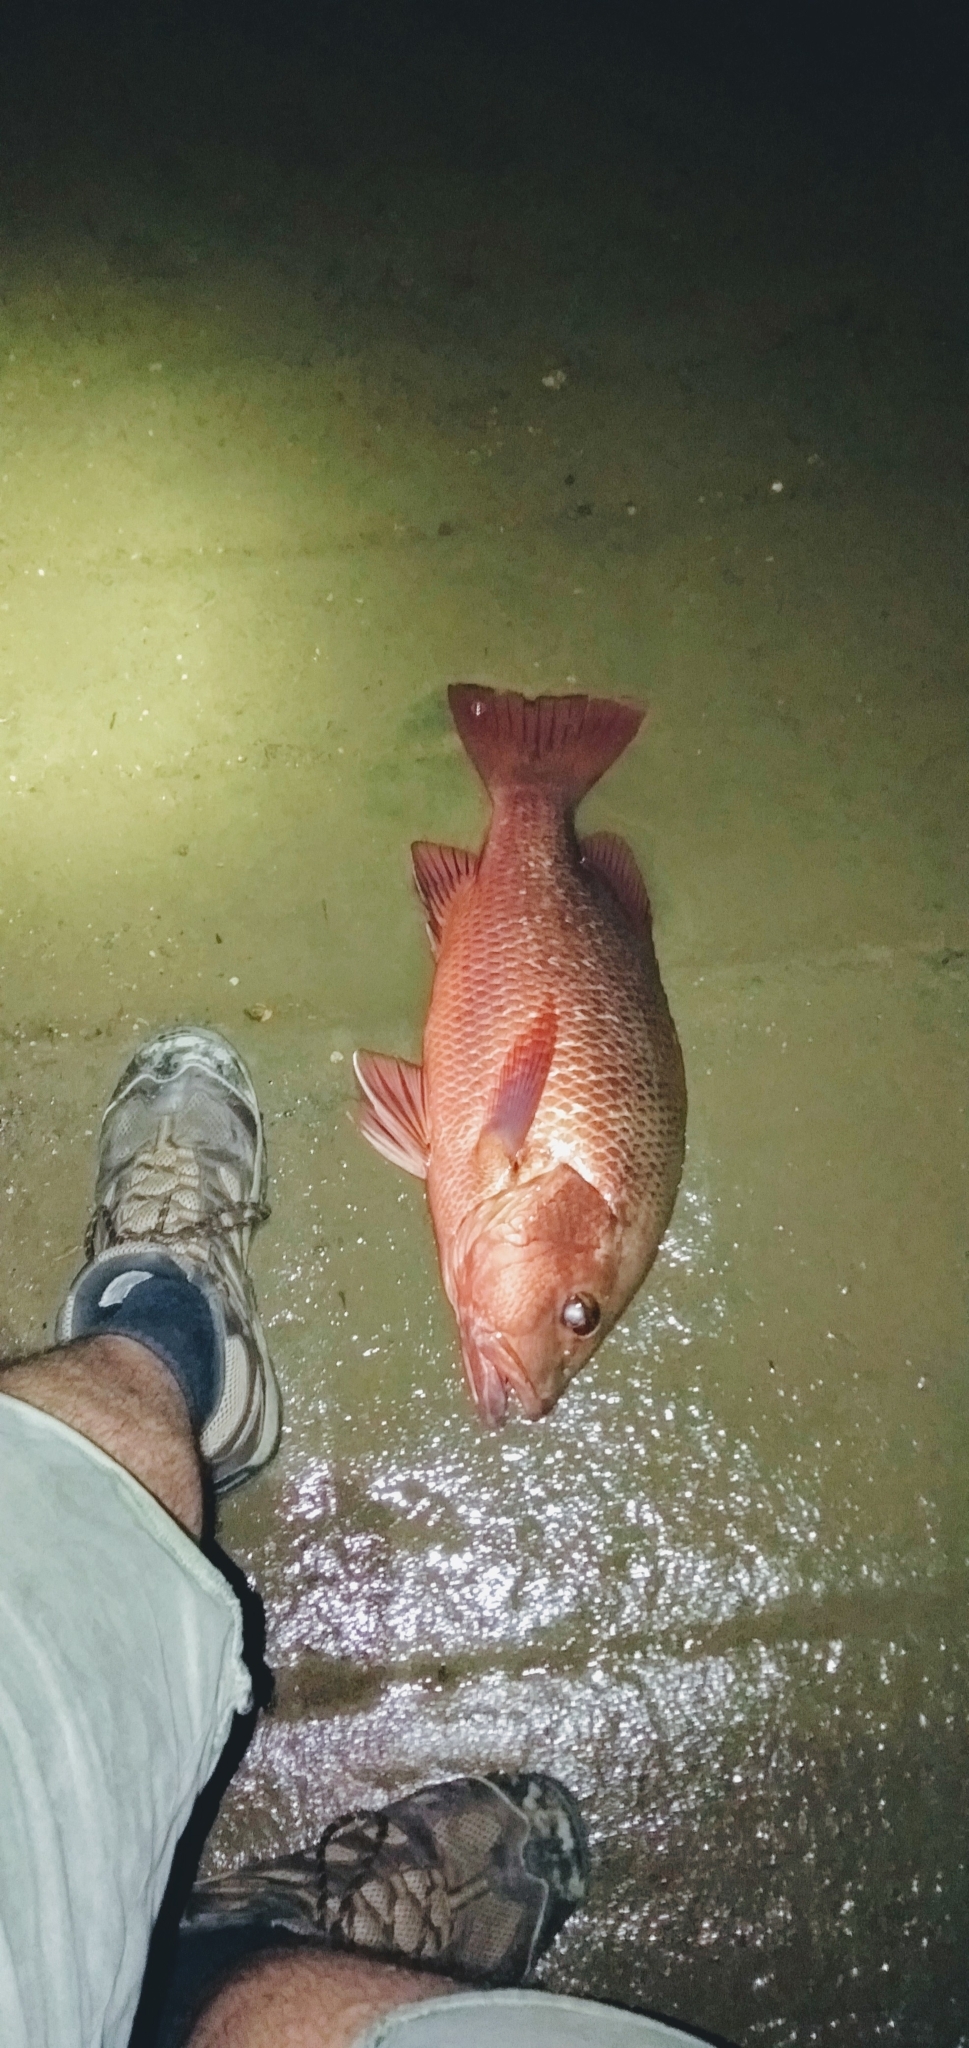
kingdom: Animalia
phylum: Chordata
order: Perciformes
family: Lutjanidae
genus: Lutjanus
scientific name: Lutjanus argentimaculatus
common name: Mangrove red snapper
